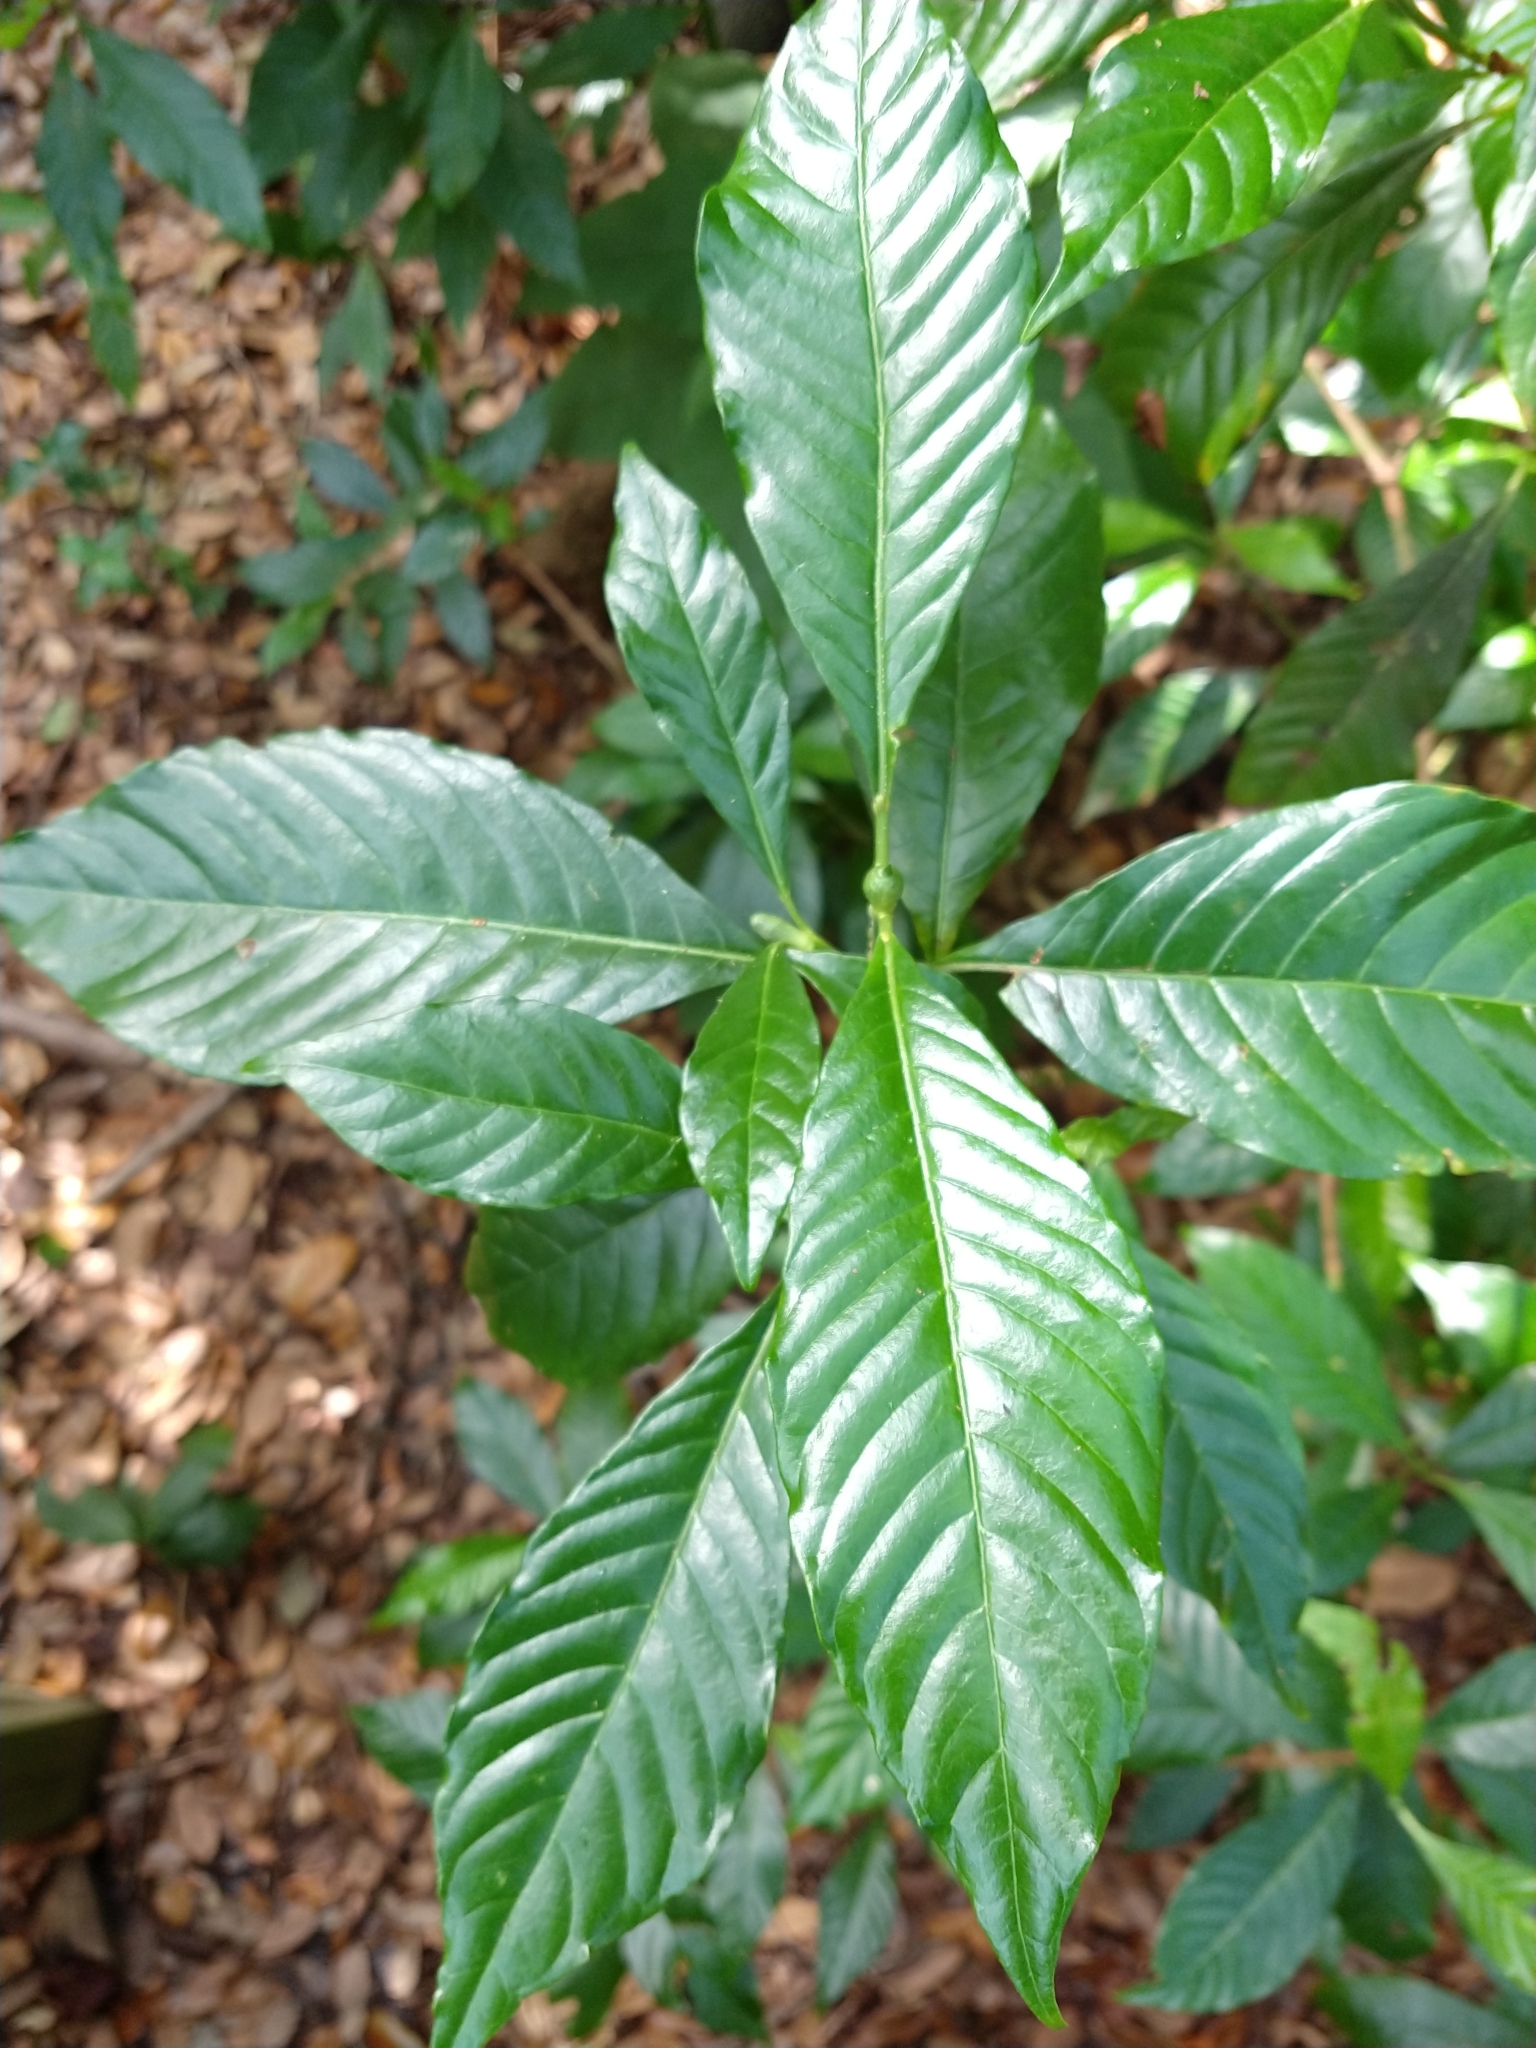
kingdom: Plantae
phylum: Tracheophyta
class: Magnoliopsida
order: Gentianales
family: Rubiaceae
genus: Psychotria
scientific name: Psychotria nervosa
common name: Bastard cankerberry
